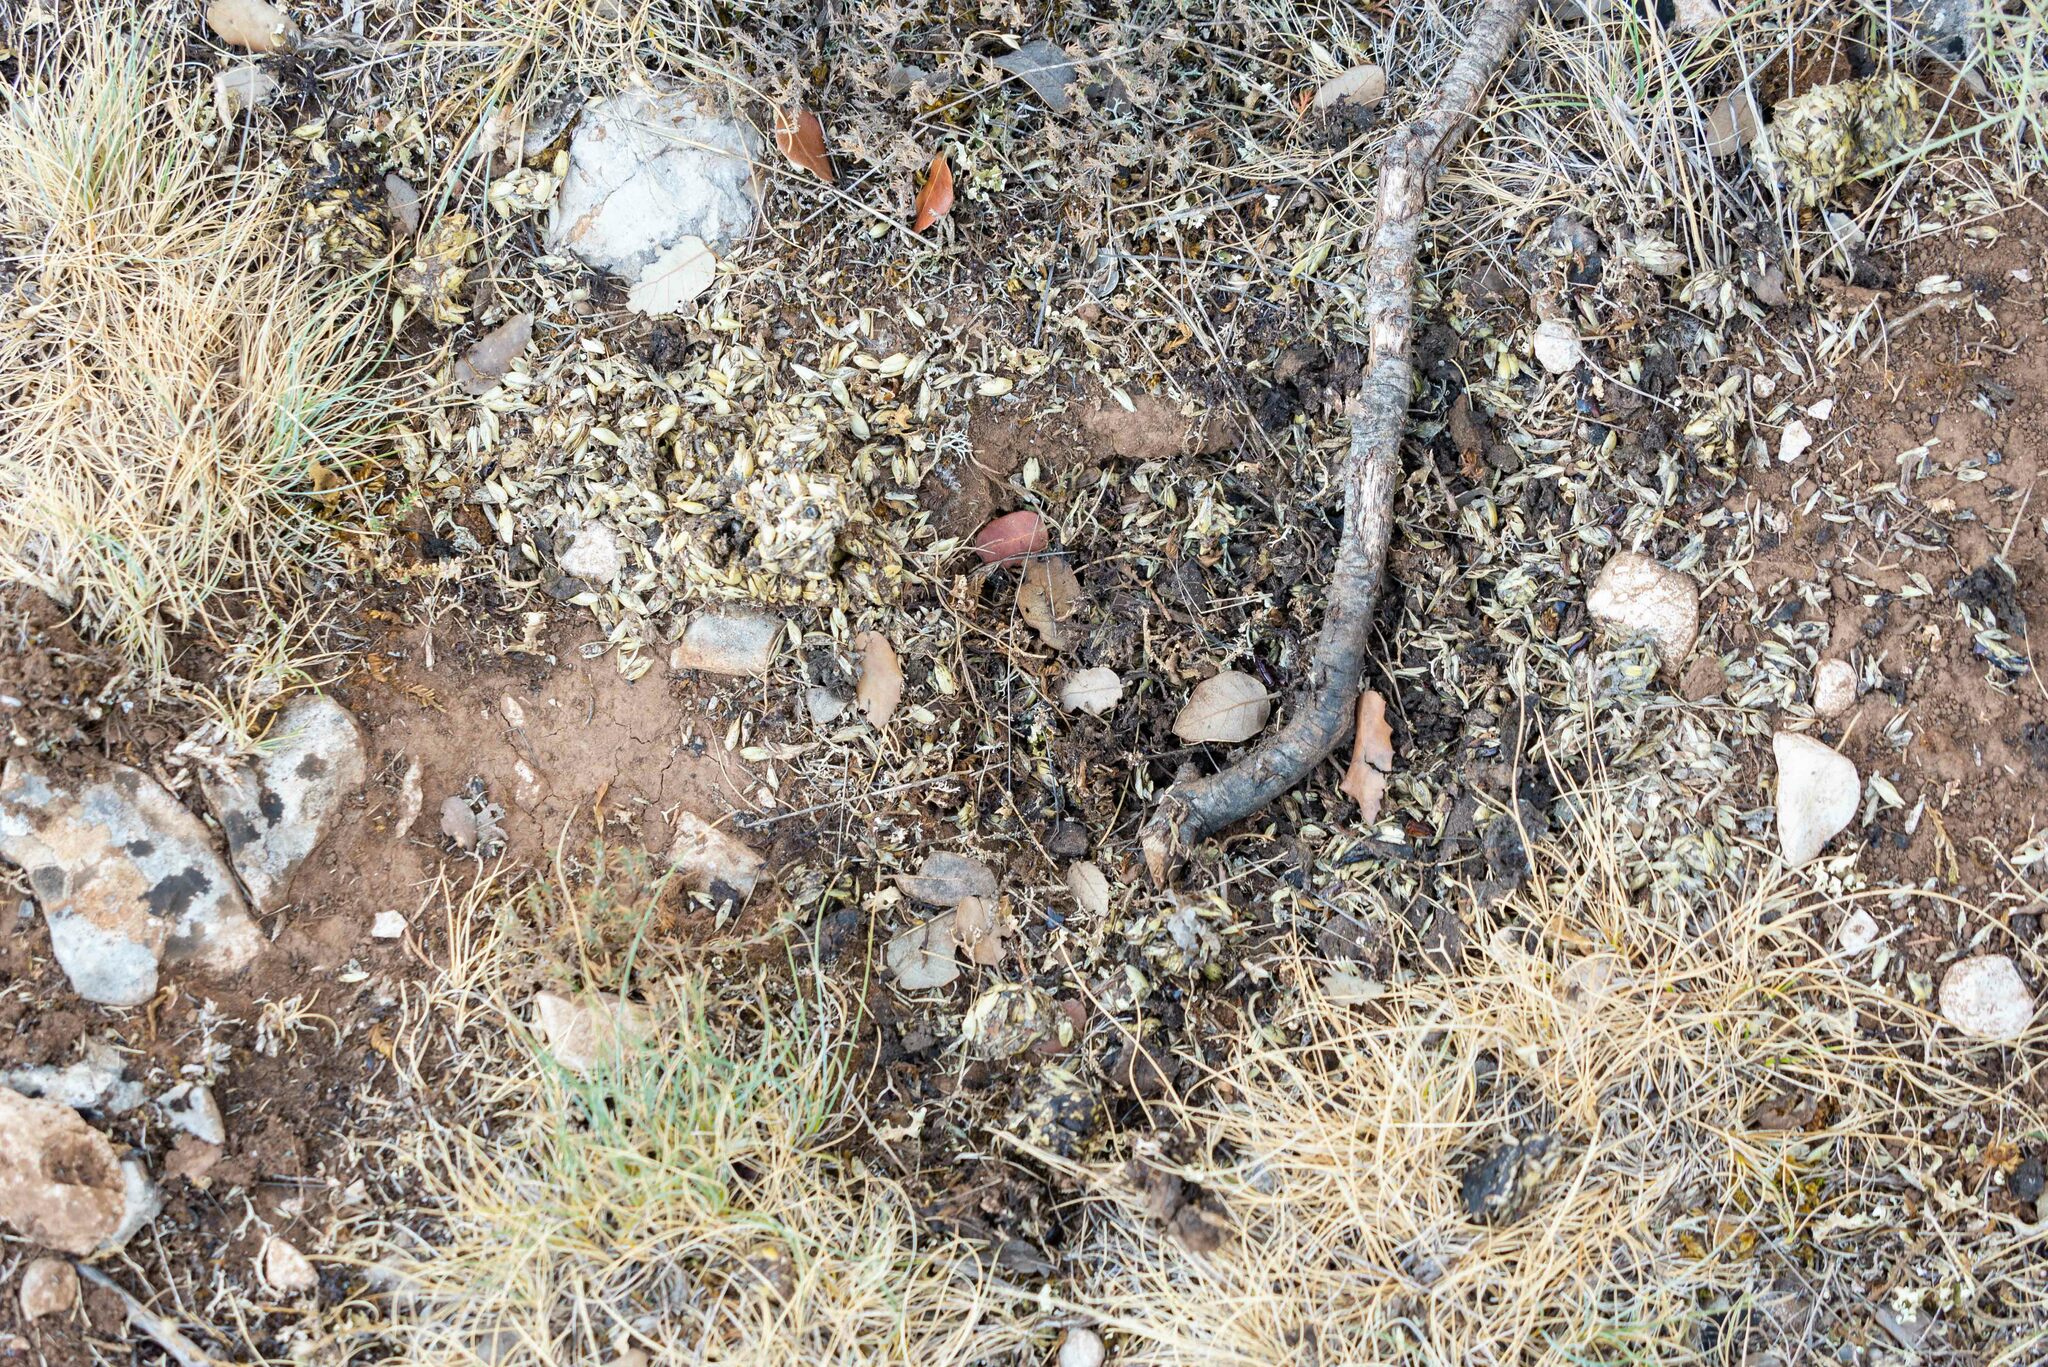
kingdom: Animalia
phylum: Chordata
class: Mammalia
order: Carnivora
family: Mustelidae
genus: Meles
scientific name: Meles meles
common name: Eurasian badger
